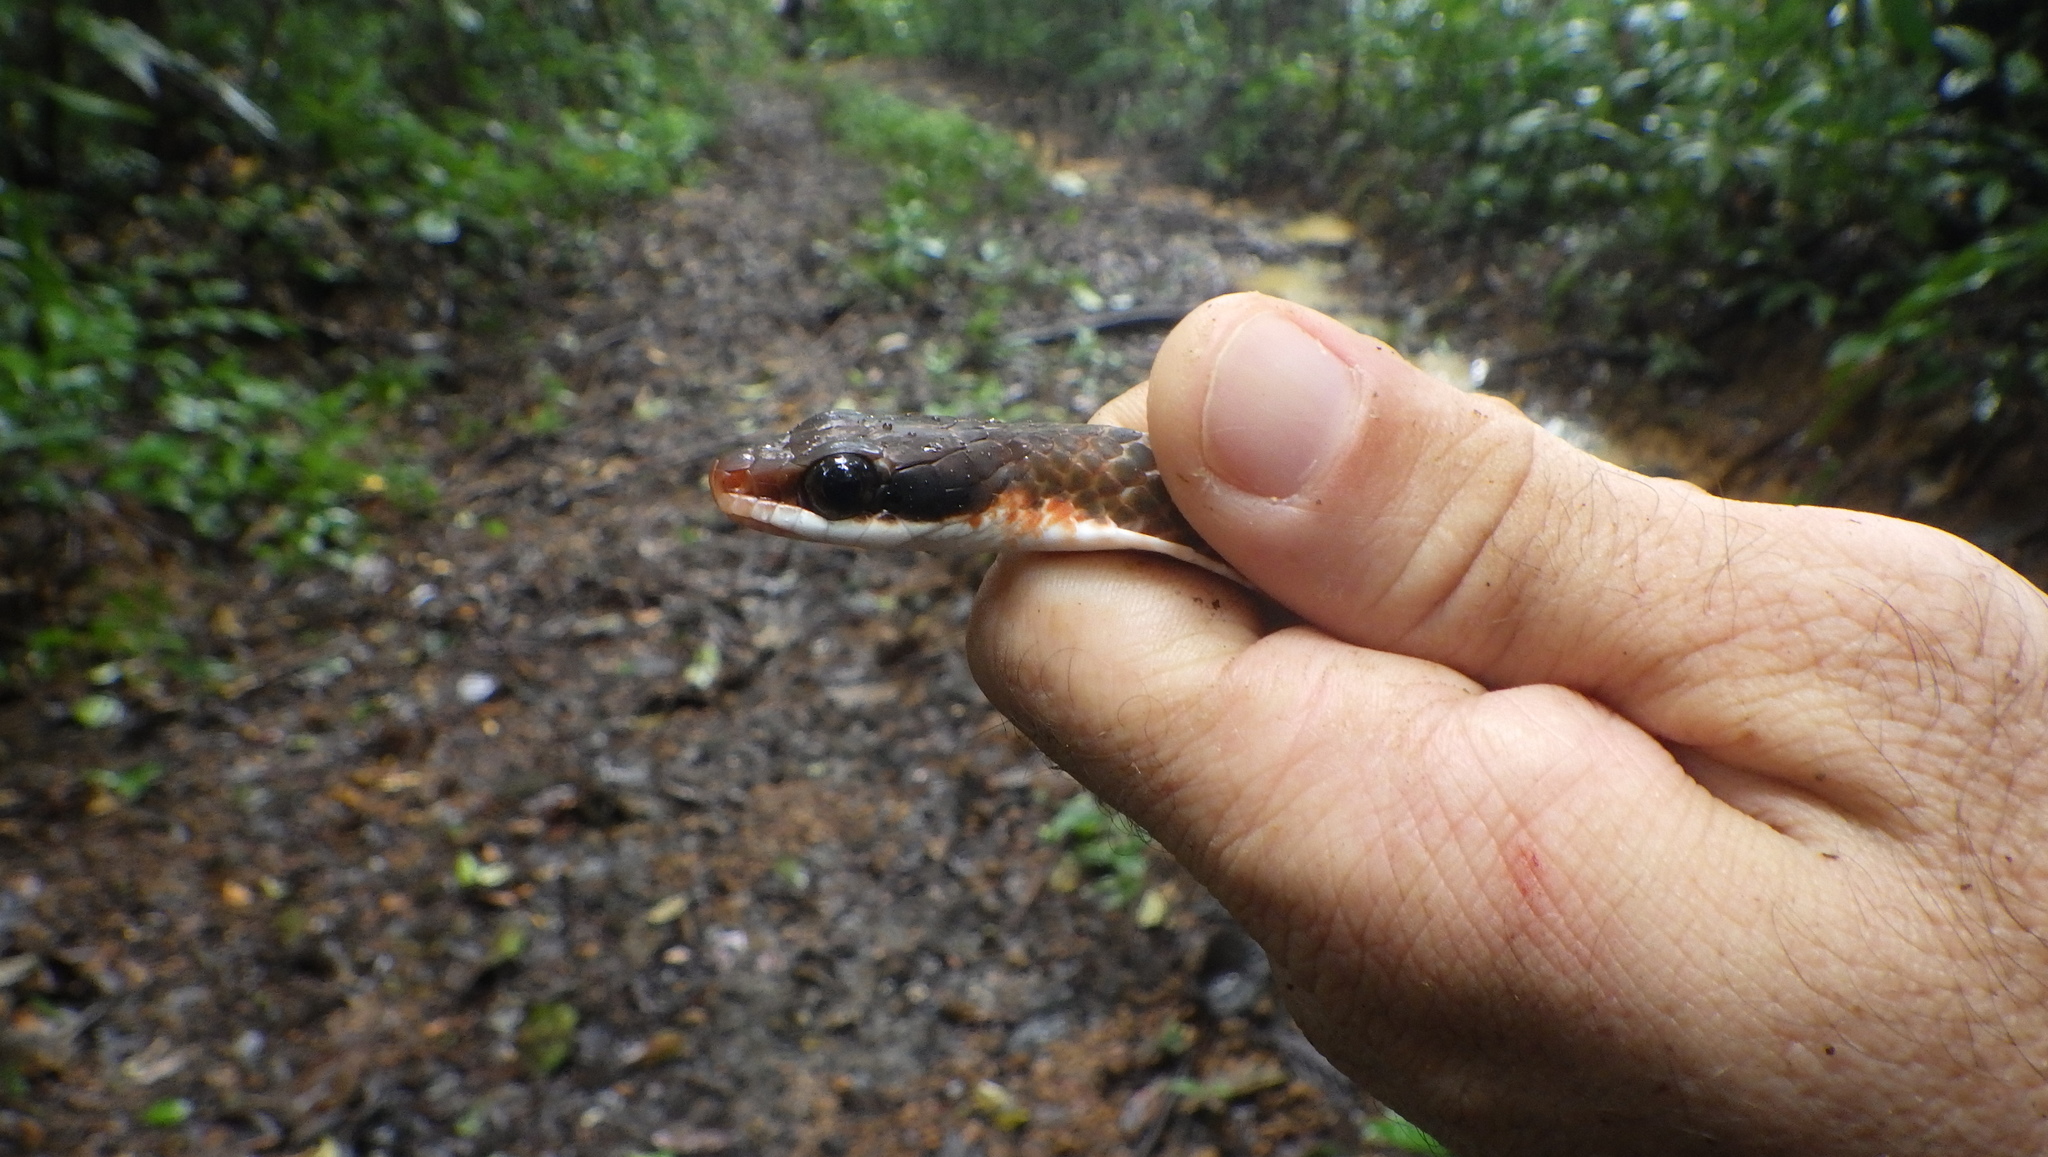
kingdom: Animalia
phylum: Chordata
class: Squamata
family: Colubridae
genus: Chironius
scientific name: Chironius fuscus
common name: Brown sipo
